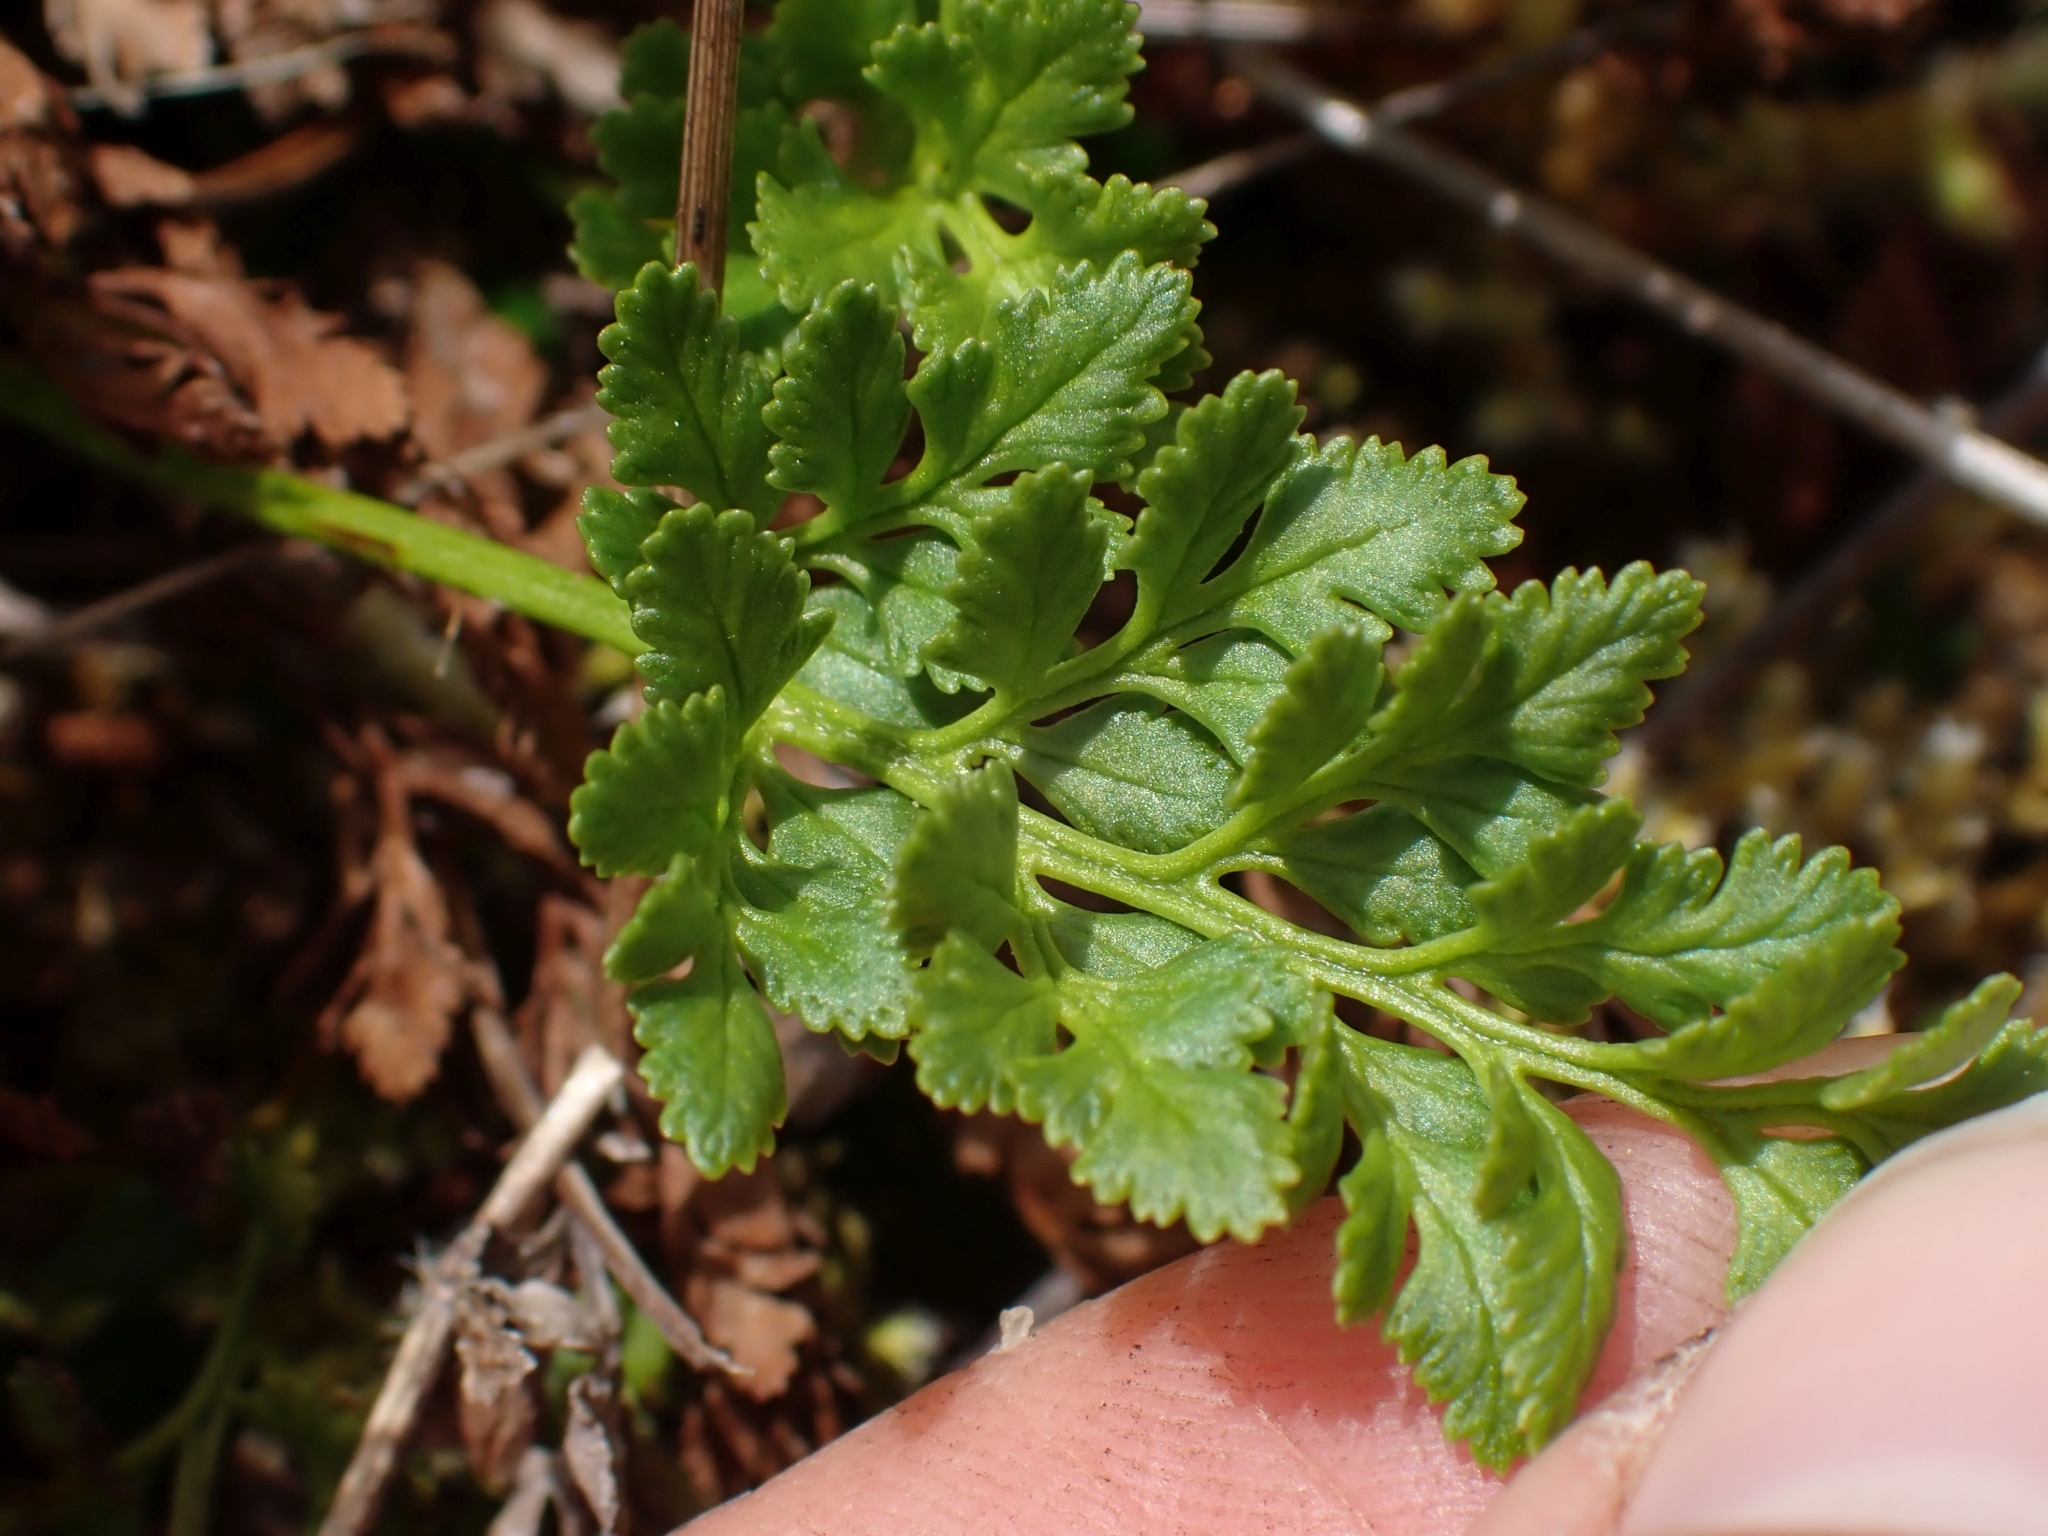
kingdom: Plantae
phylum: Tracheophyta
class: Polypodiopsida
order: Polypodiales
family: Pteridaceae
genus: Cryptogramma
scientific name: Cryptogramma acrostichoides
